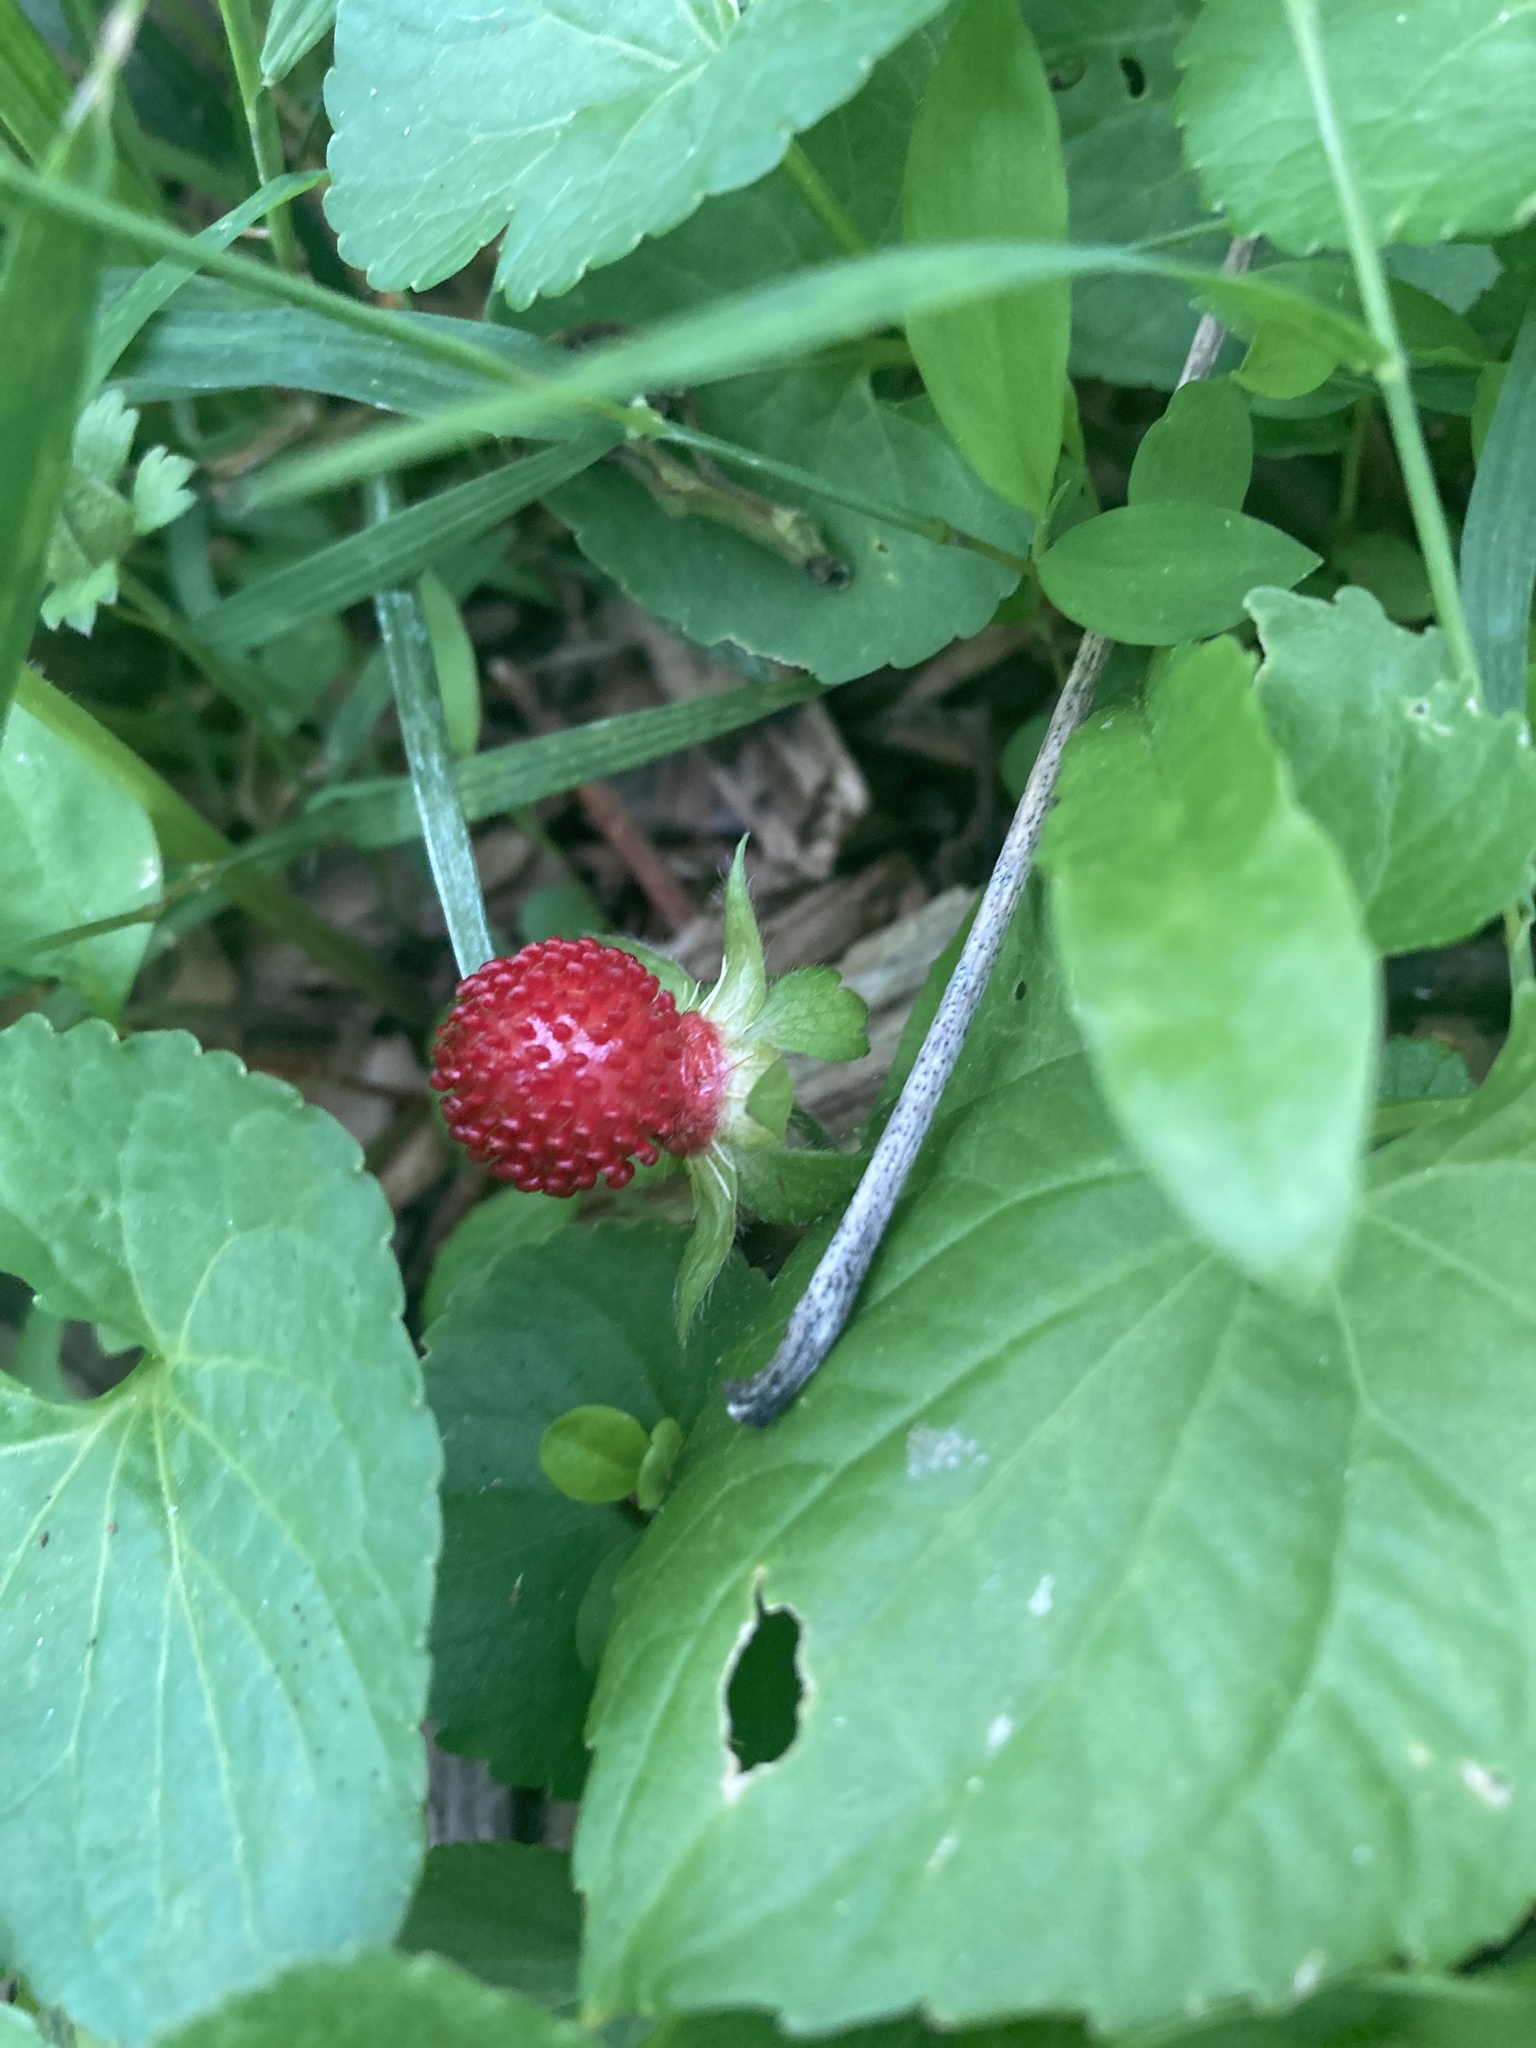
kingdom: Plantae
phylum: Tracheophyta
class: Magnoliopsida
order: Rosales
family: Rosaceae
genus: Potentilla
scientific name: Potentilla indica
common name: Yellow-flowered strawberry
